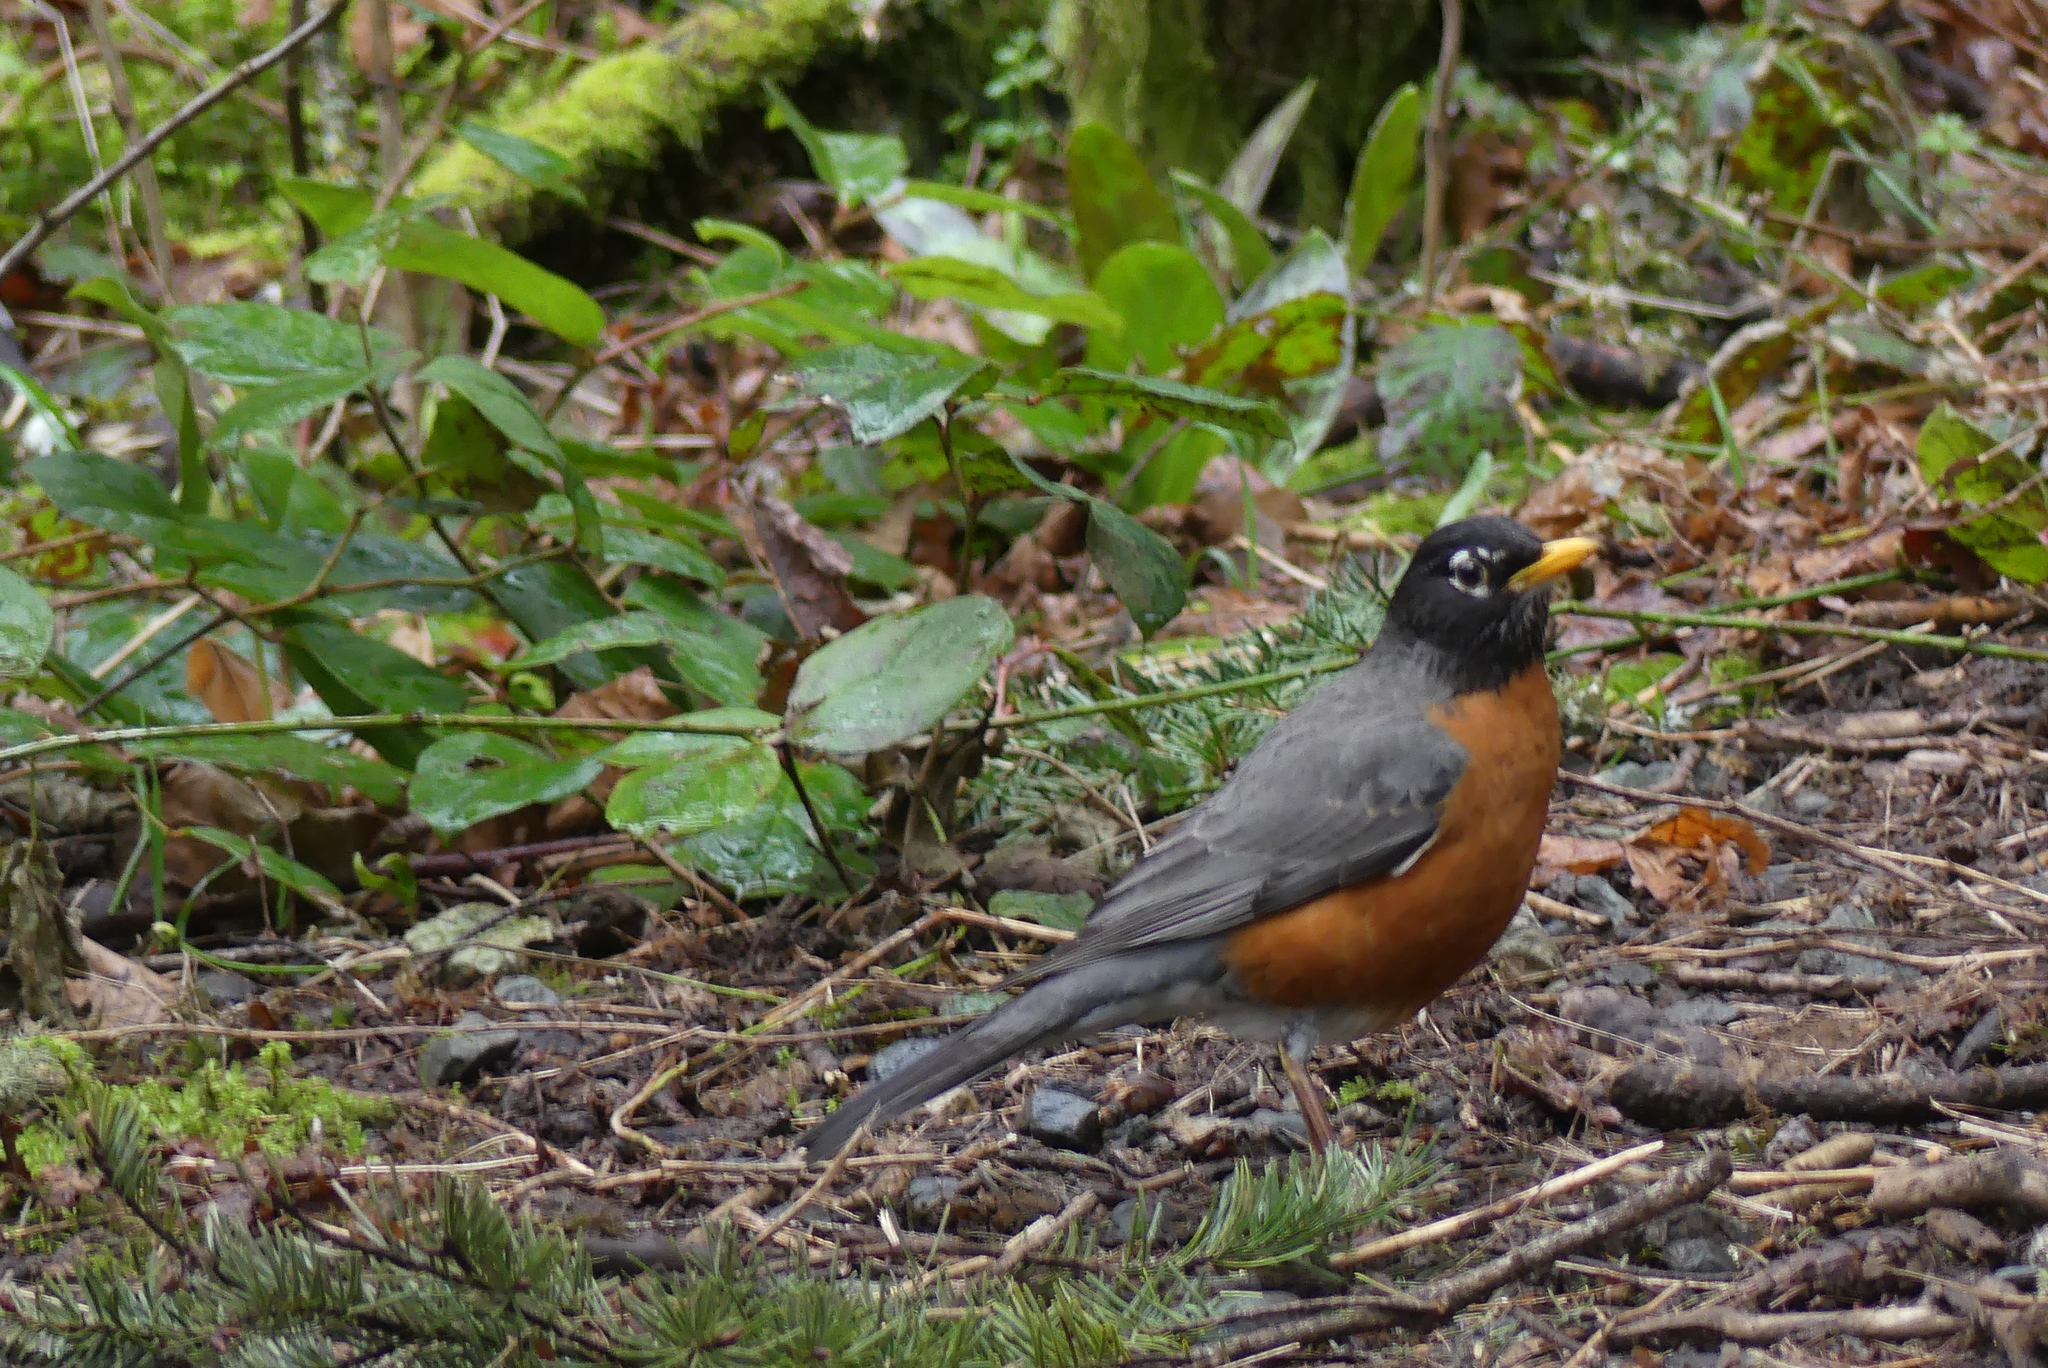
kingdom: Animalia
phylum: Chordata
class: Aves
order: Passeriformes
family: Turdidae
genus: Turdus
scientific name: Turdus migratorius
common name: American robin
